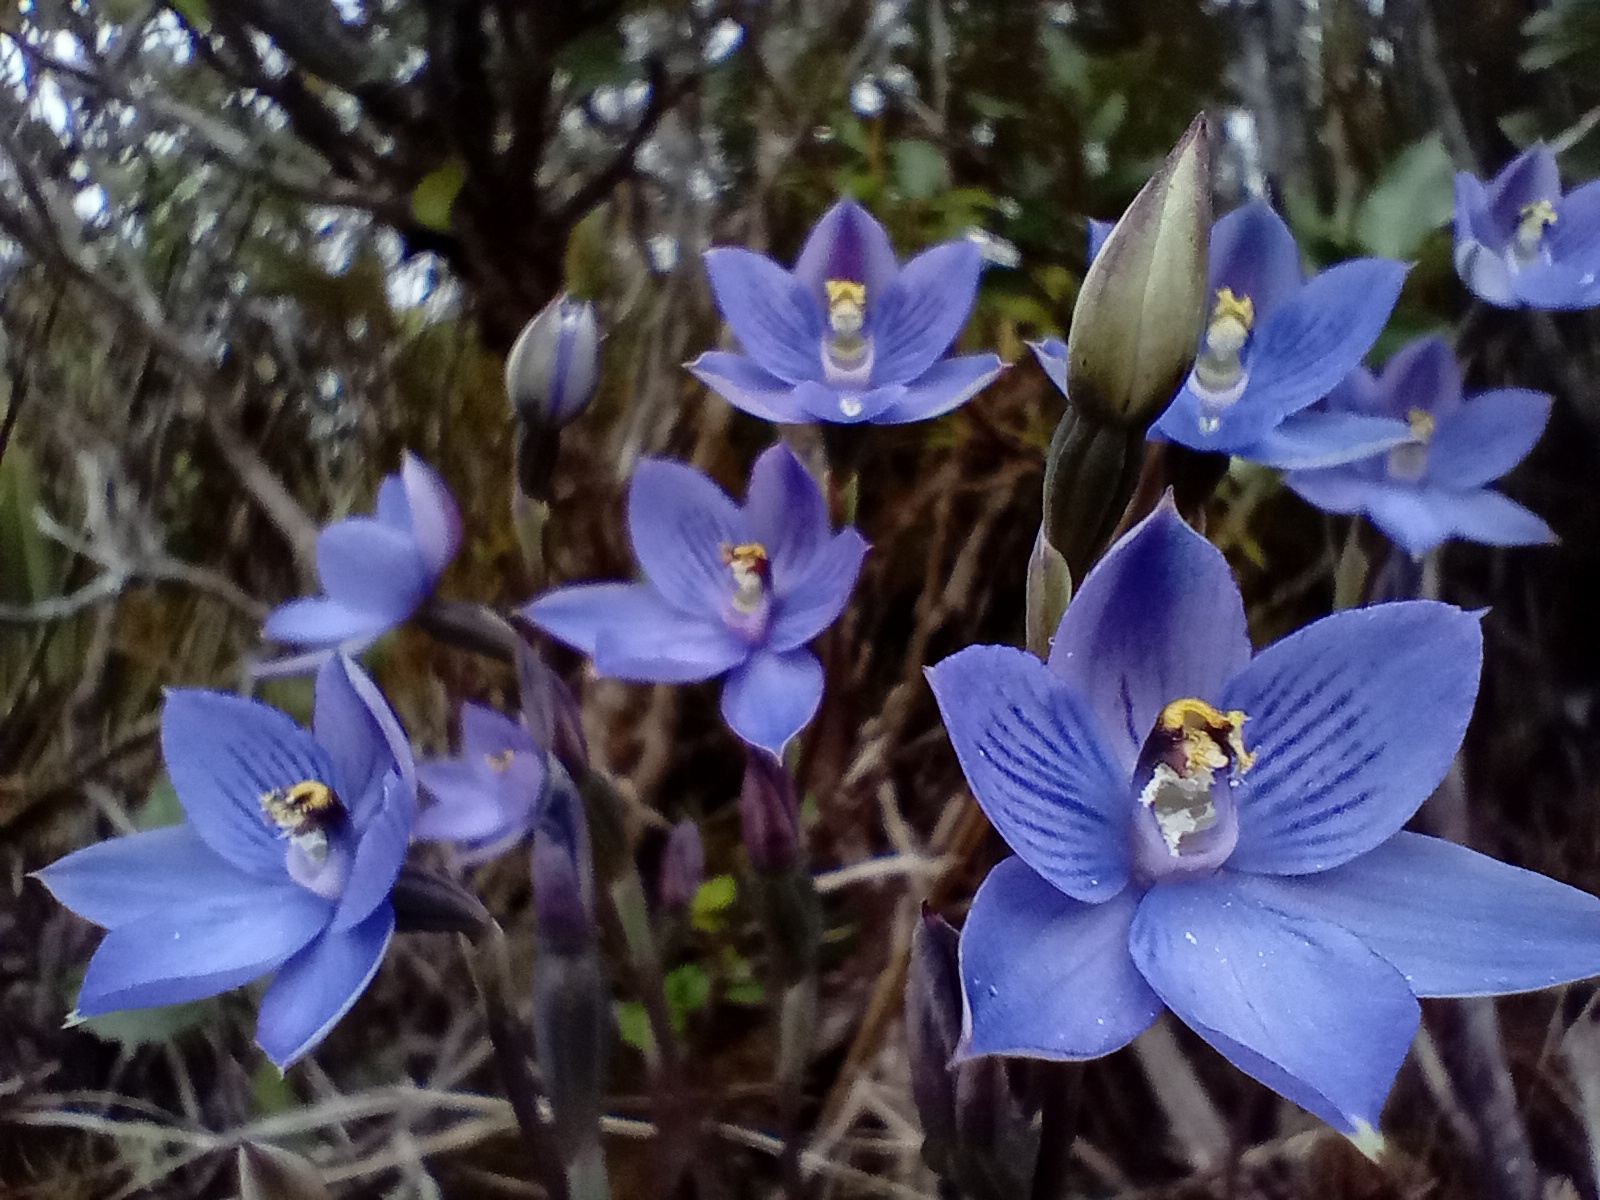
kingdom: Plantae
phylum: Tracheophyta
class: Liliopsida
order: Asparagales
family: Orchidaceae
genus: Thelymitra
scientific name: Thelymitra pulchella
